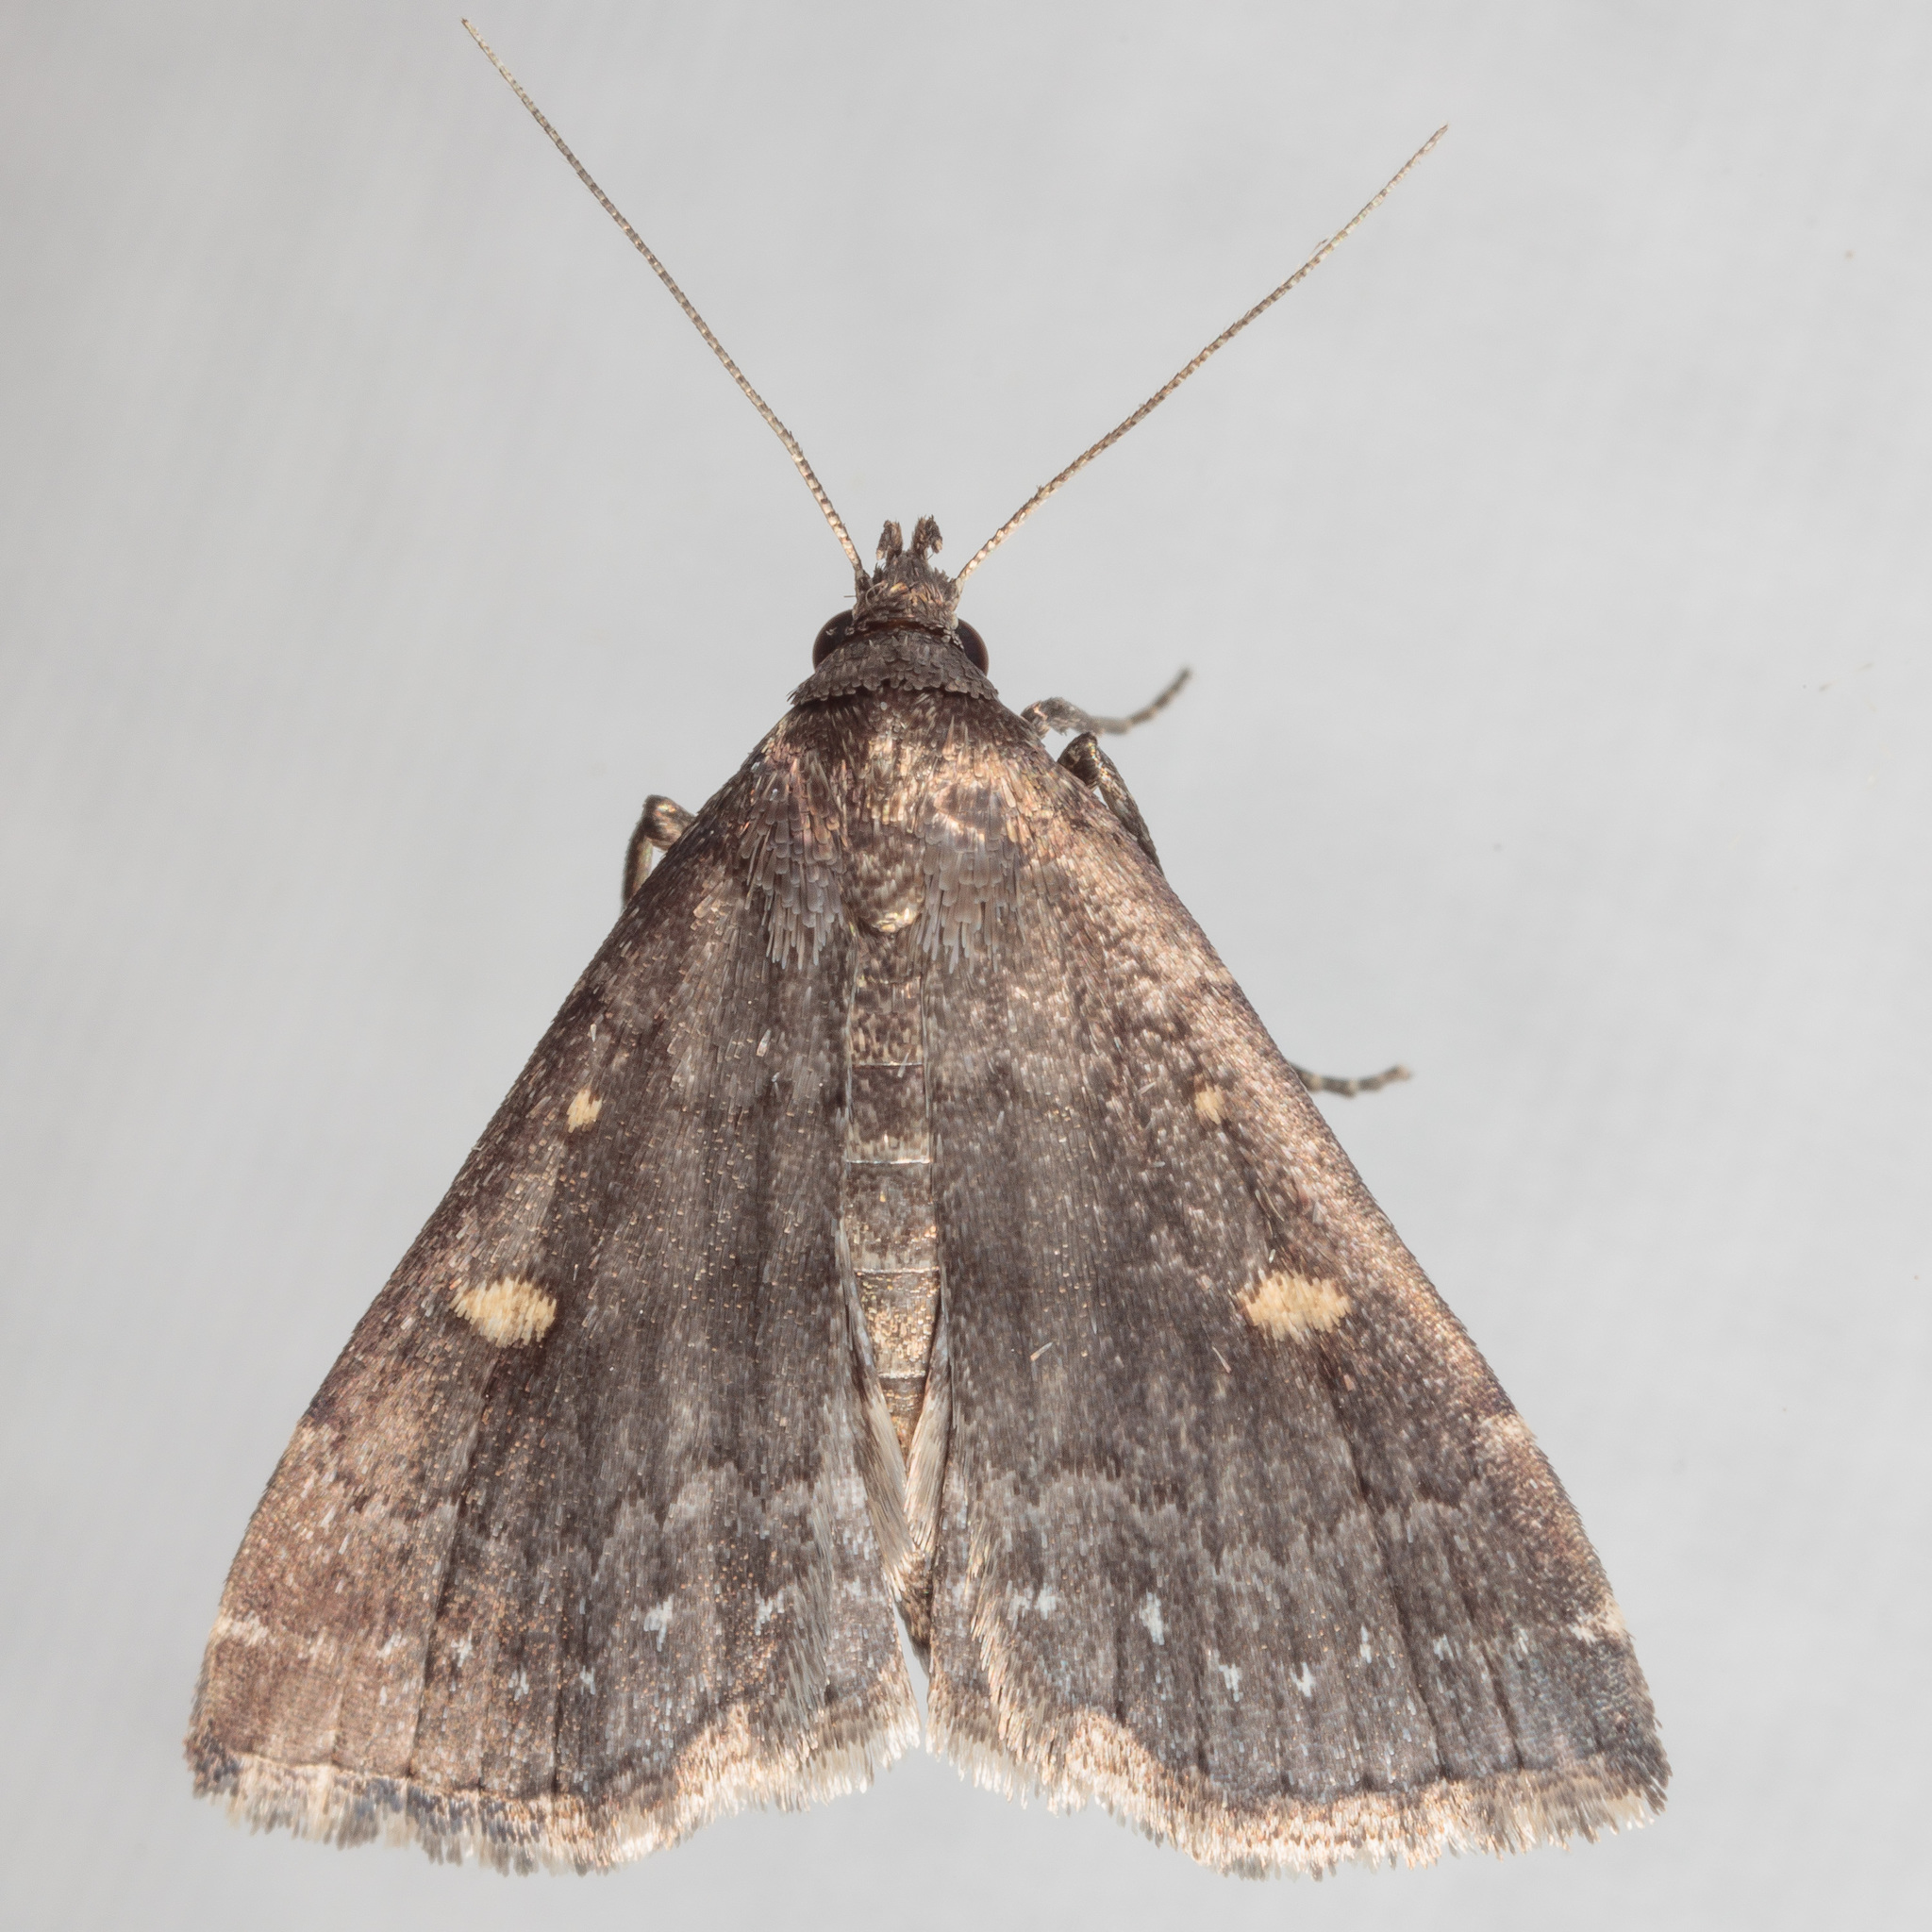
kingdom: Animalia
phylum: Arthropoda
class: Insecta
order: Lepidoptera
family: Erebidae
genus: Tetanolita
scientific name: Tetanolita mynesalis
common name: Smoky tetanolita moth
